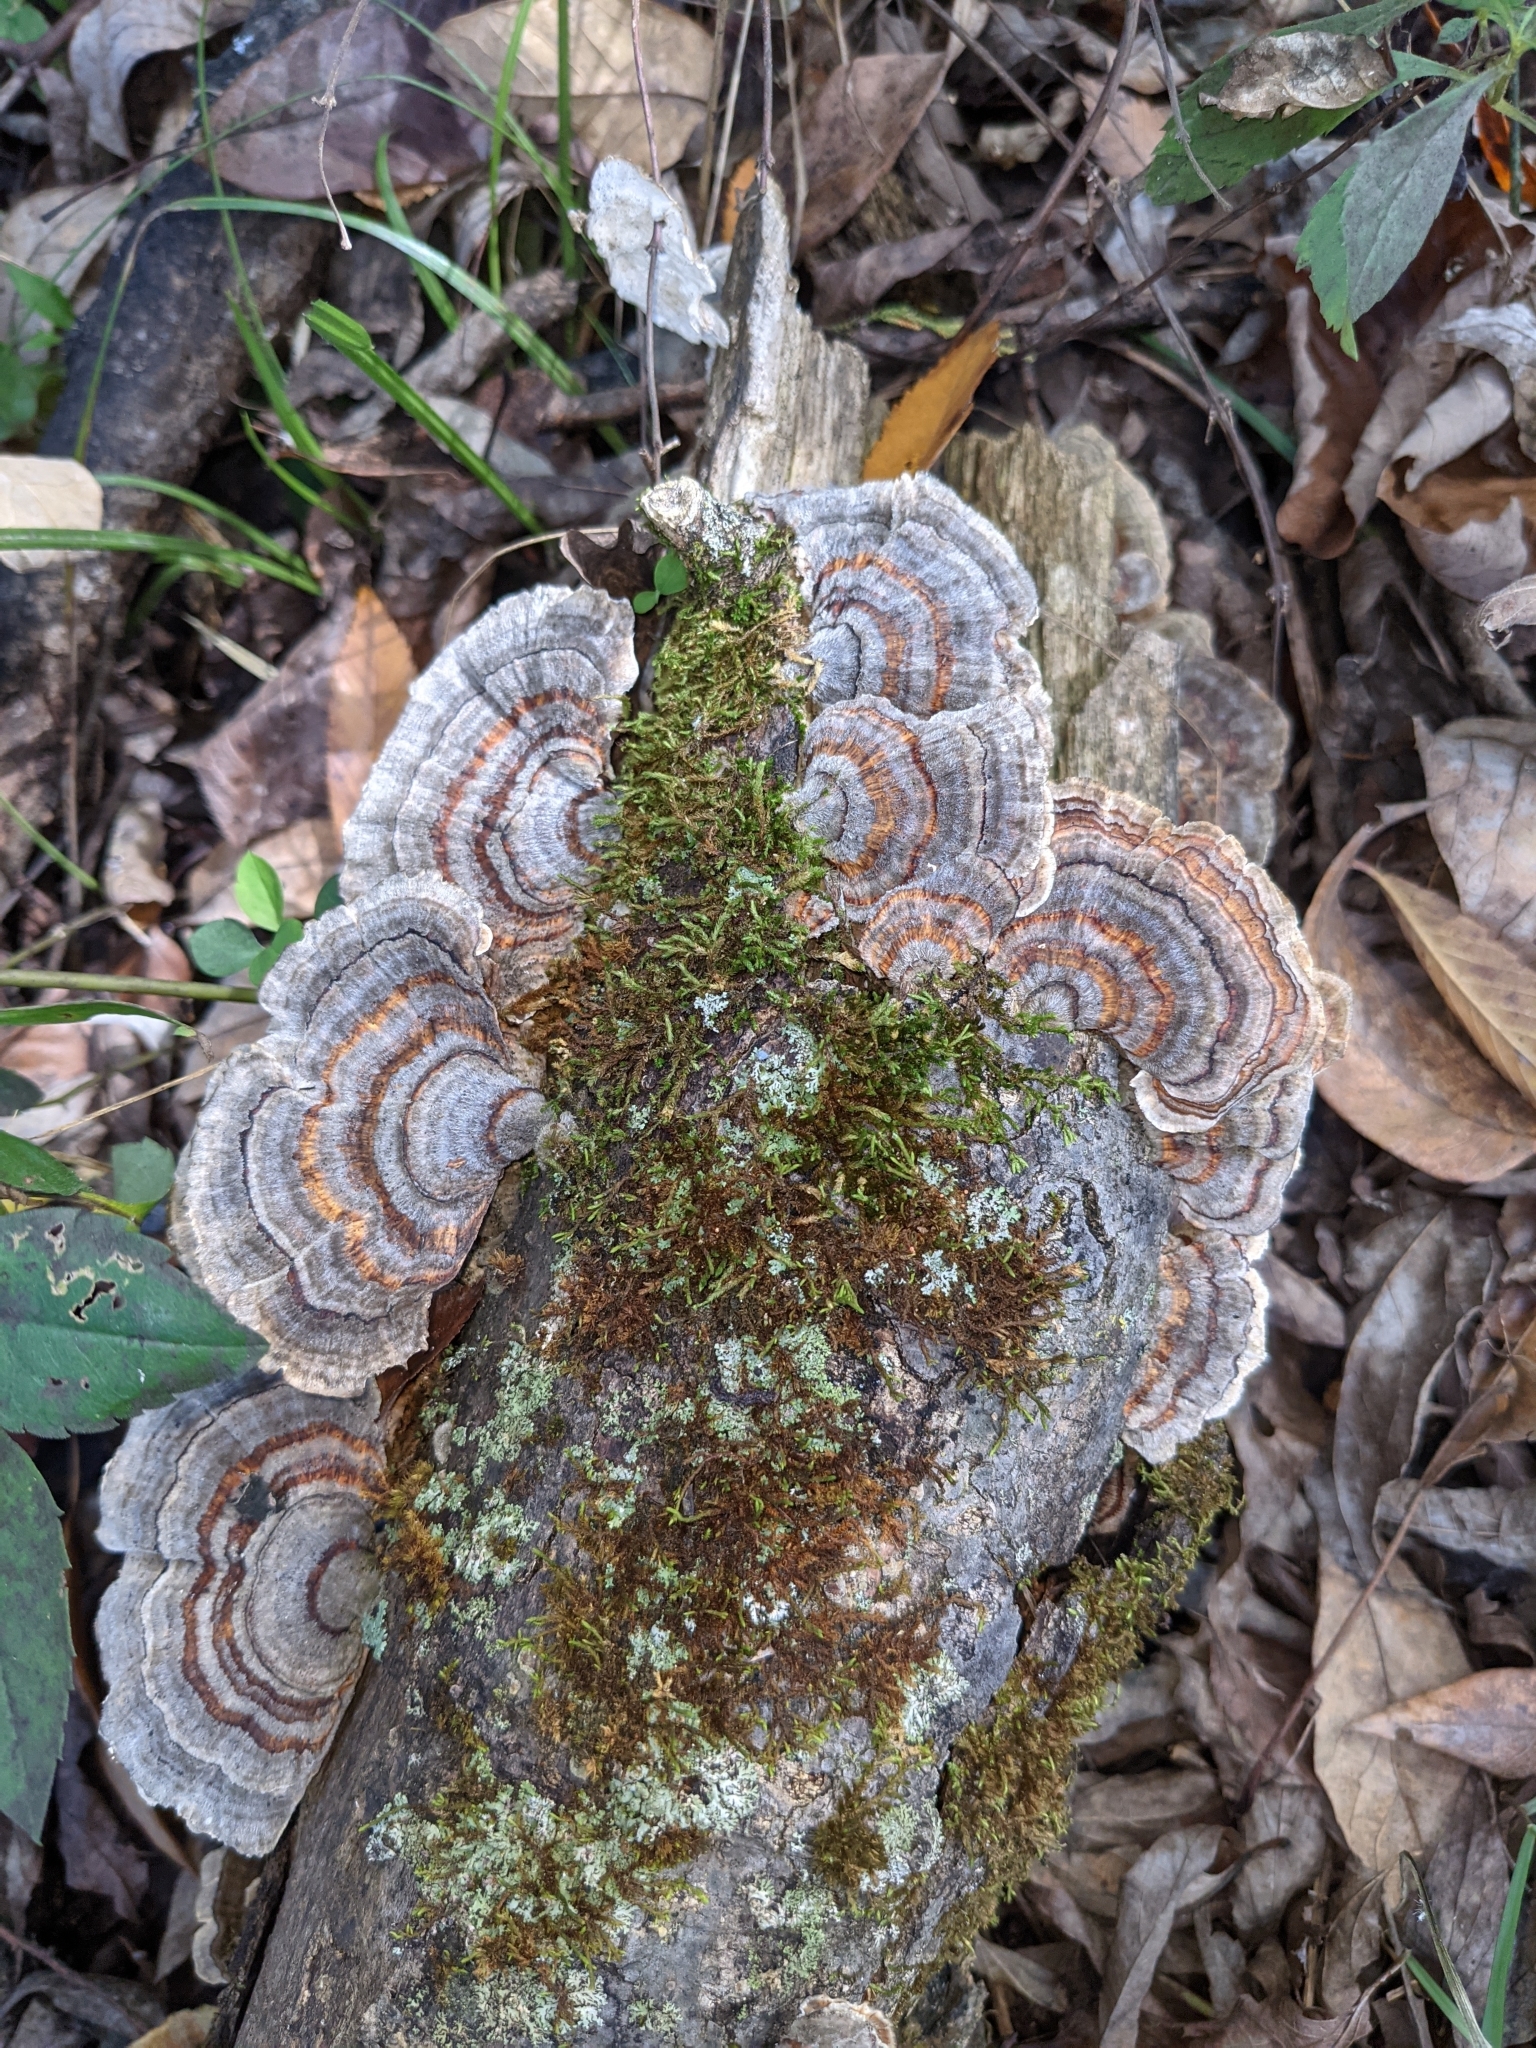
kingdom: Fungi
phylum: Basidiomycota
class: Agaricomycetes
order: Polyporales
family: Polyporaceae
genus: Trametes
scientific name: Trametes versicolor
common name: Turkeytail
